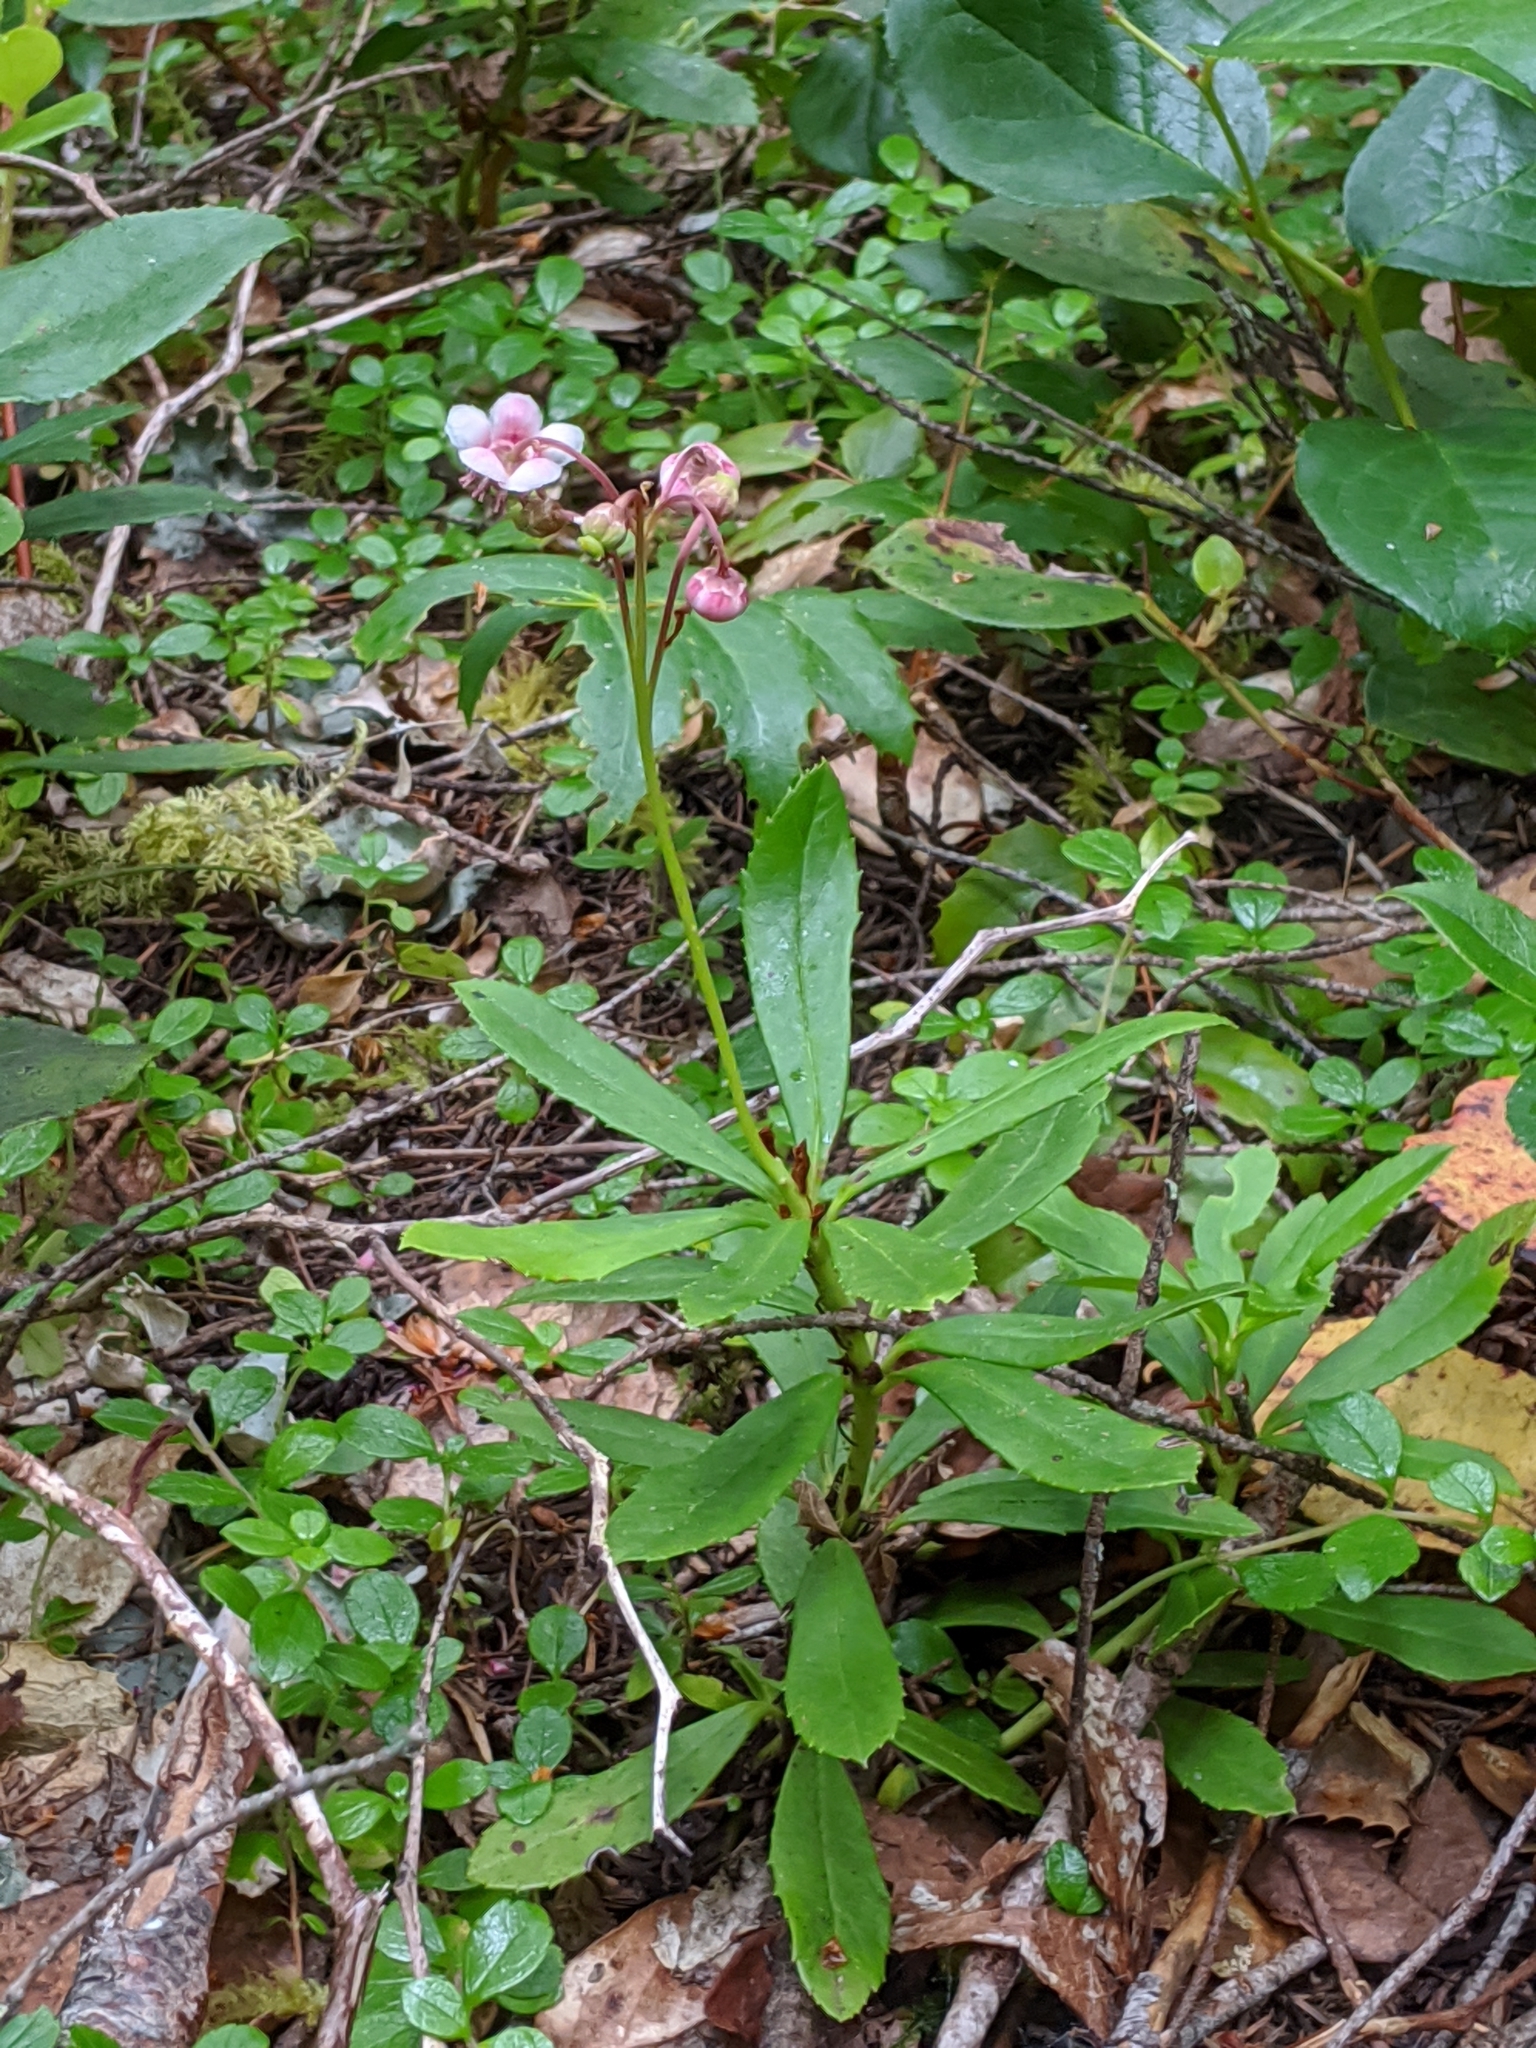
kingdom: Plantae
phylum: Tracheophyta
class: Magnoliopsida
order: Ericales
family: Ericaceae
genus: Chimaphila
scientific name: Chimaphila umbellata
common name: Pipsissewa
